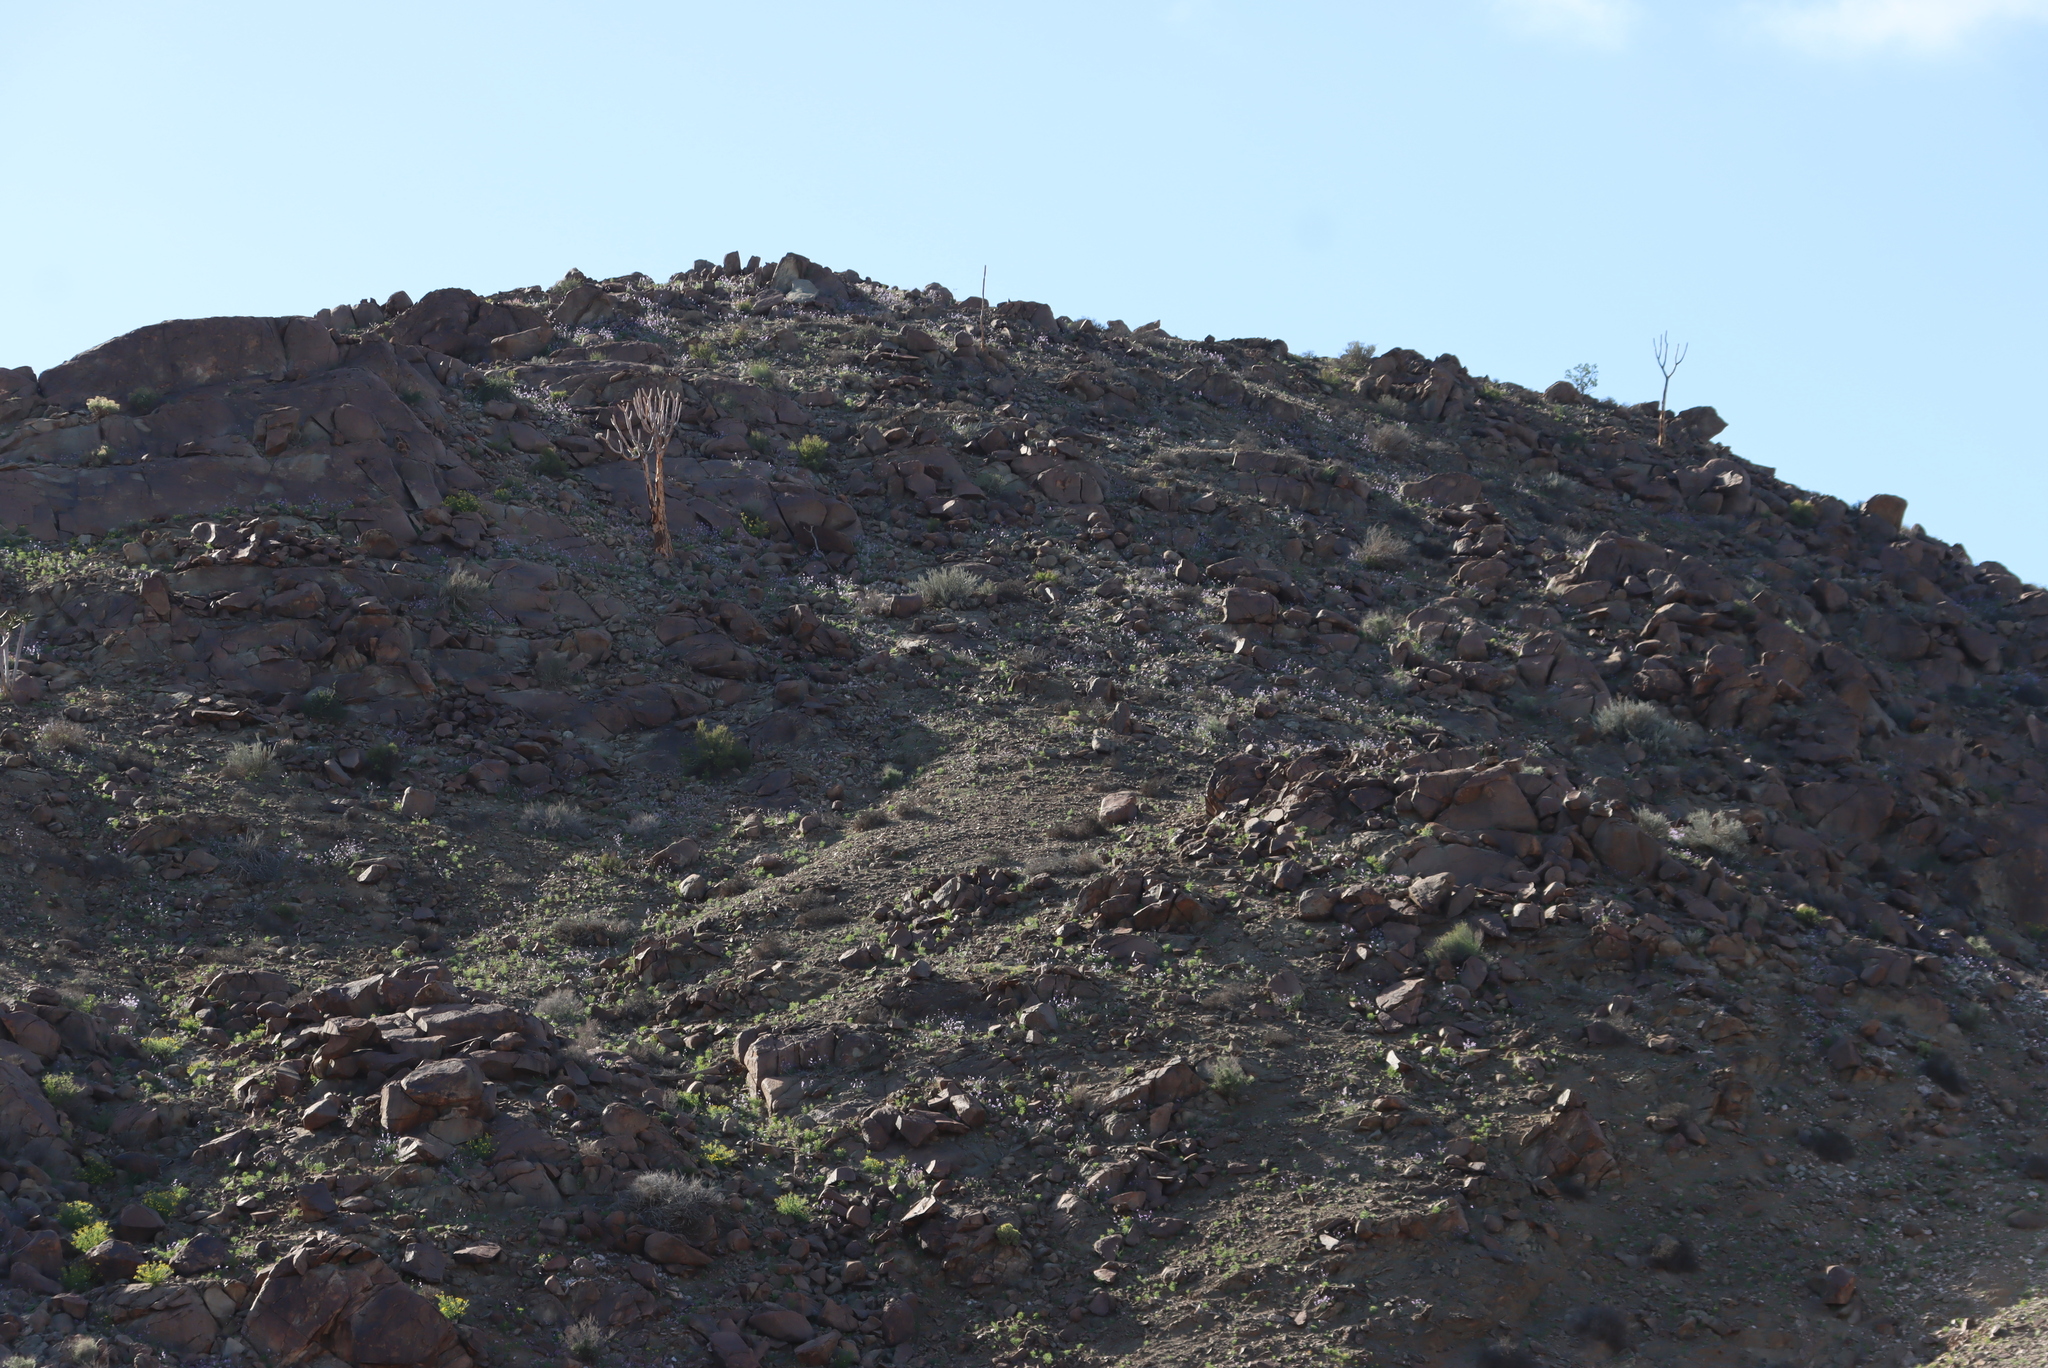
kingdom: Plantae
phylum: Tracheophyta
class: Liliopsida
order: Asparagales
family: Asphodelaceae
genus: Aloidendron
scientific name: Aloidendron dichotomum
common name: Quiver tree
